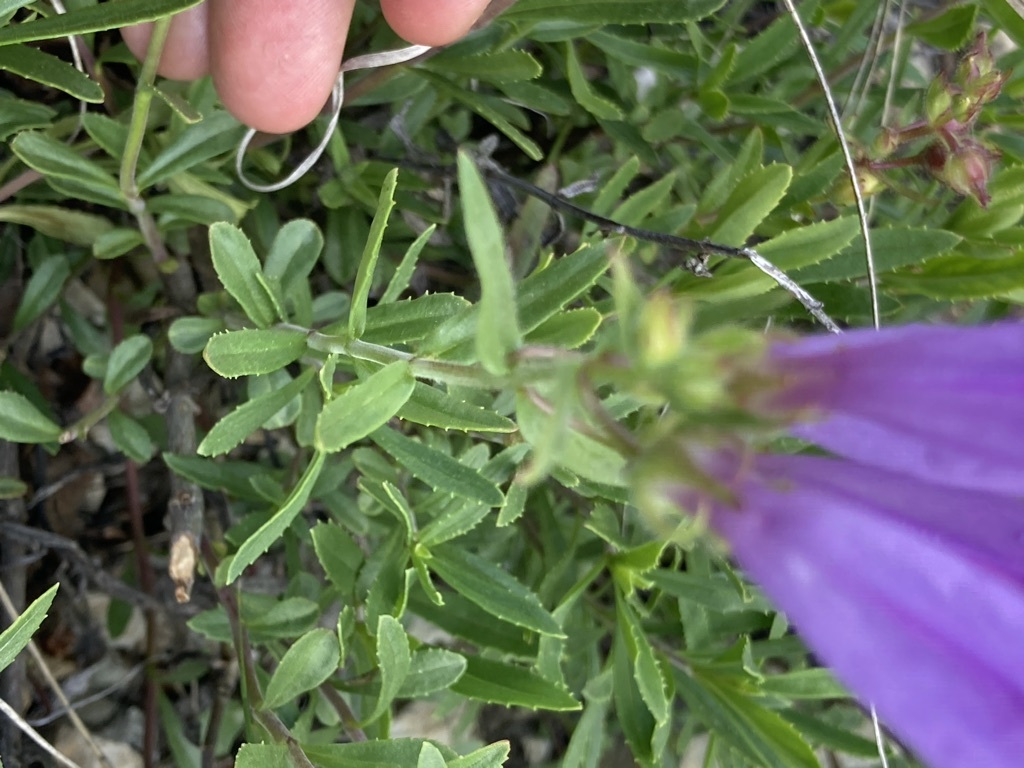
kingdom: Plantae
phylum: Tracheophyta
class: Magnoliopsida
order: Lamiales
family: Plantaginaceae
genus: Penstemon
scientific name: Penstemon fruticosus
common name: Bush penstemon
